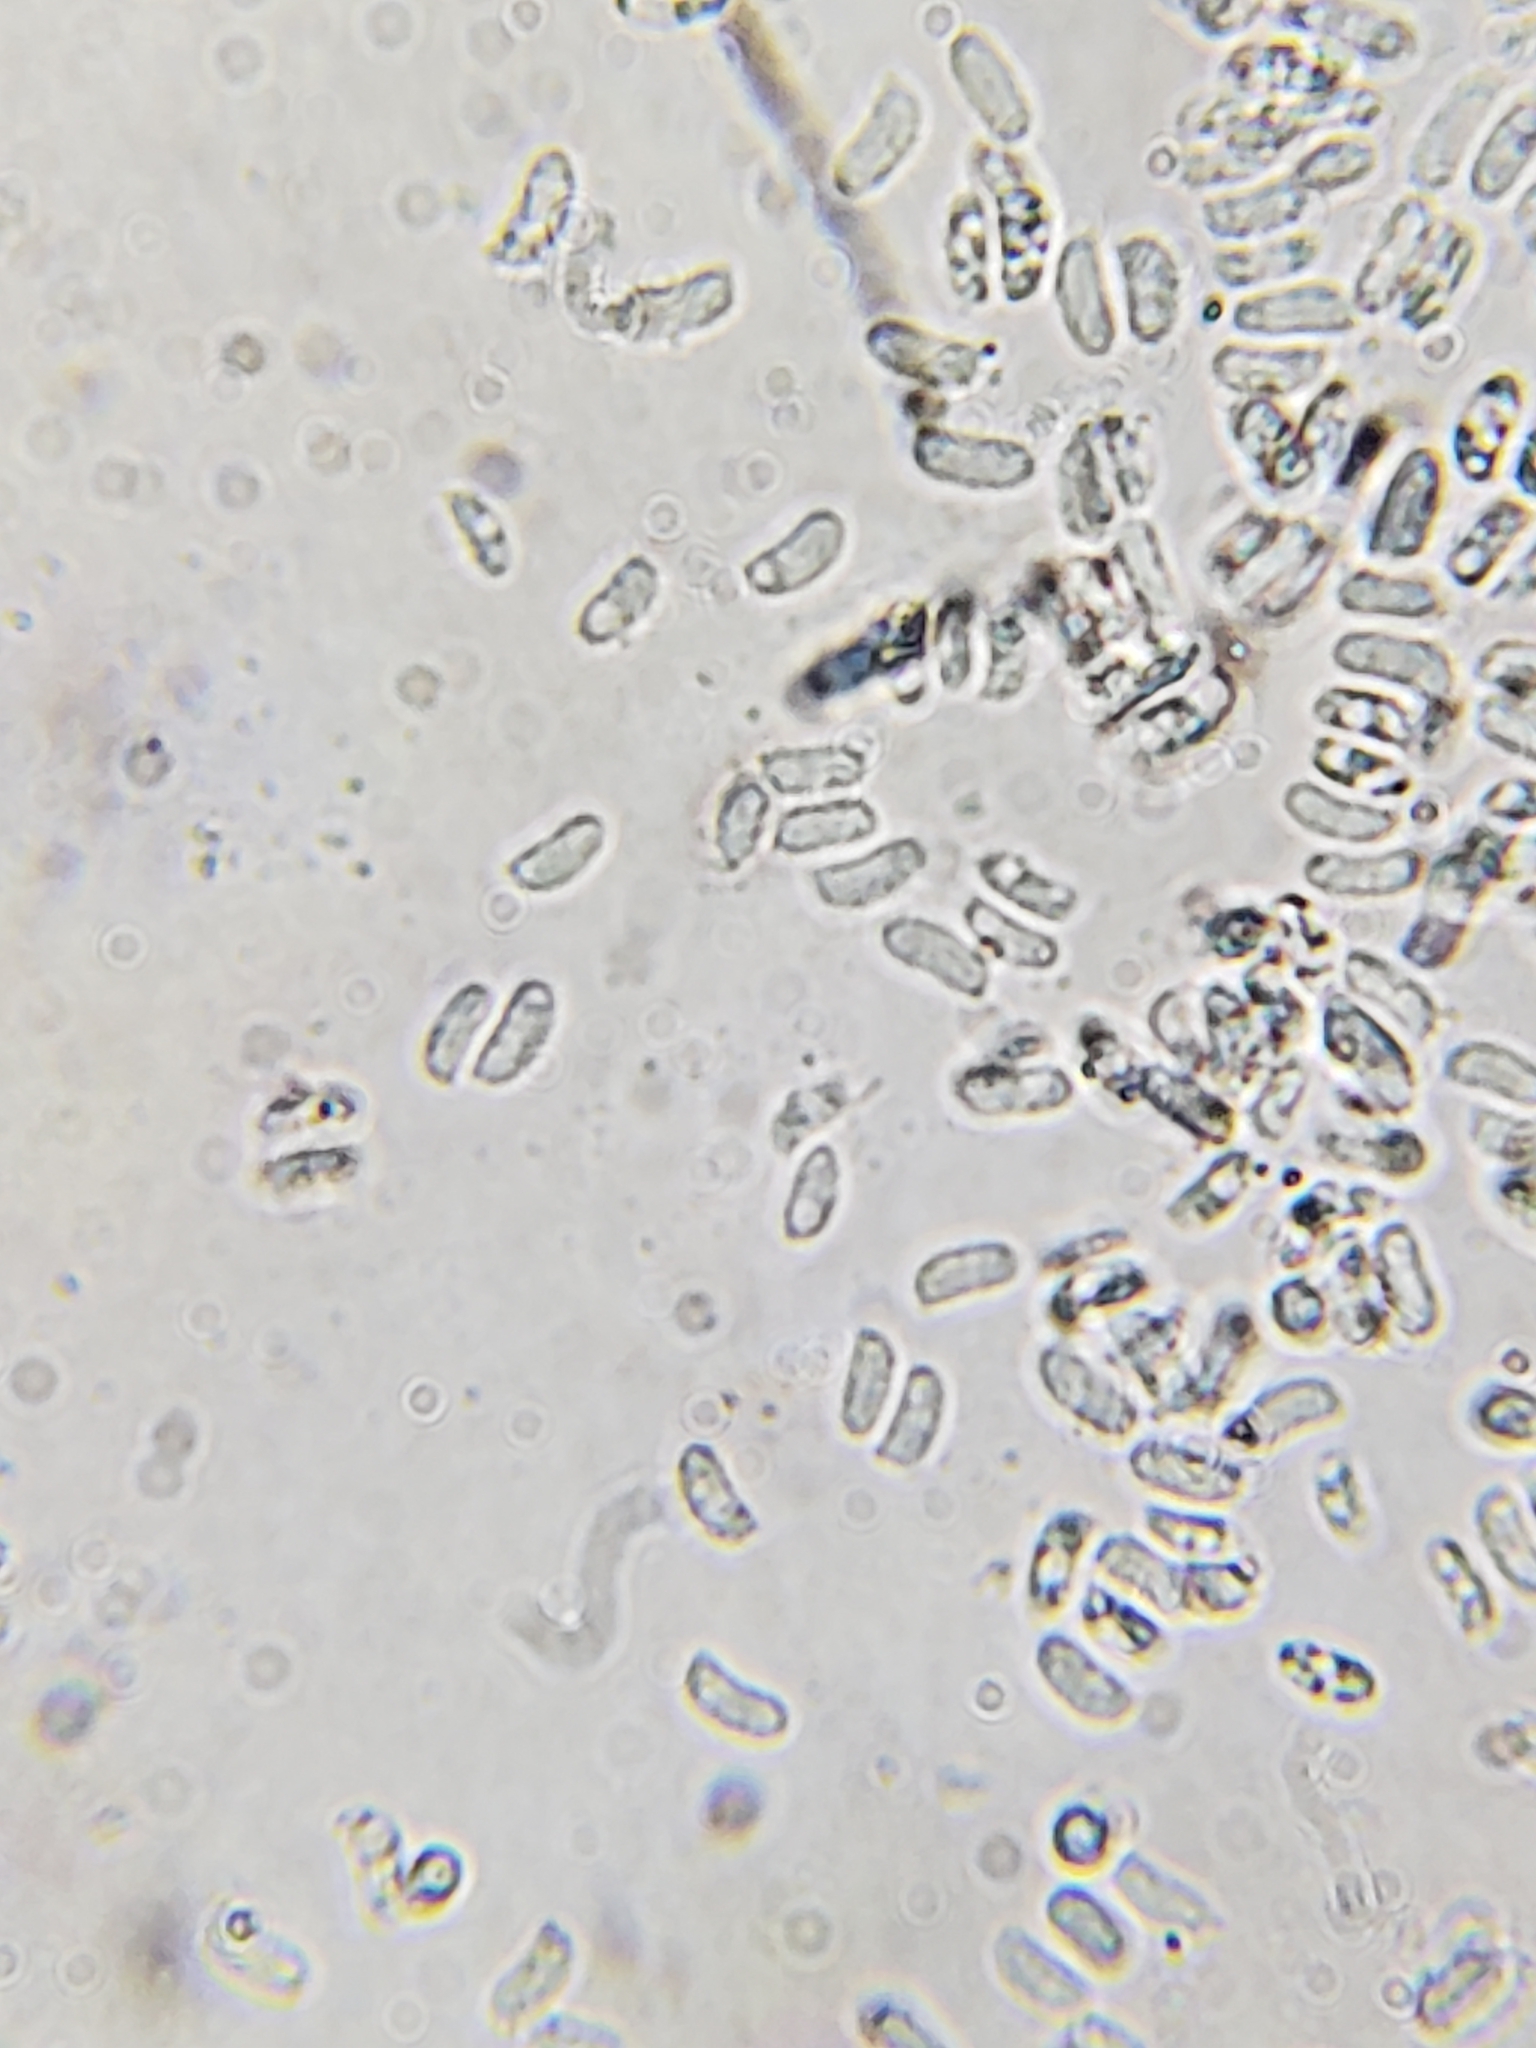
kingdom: Fungi
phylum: Basidiomycota
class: Agaricomycetes
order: Hymenochaetales
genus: Trichaptum
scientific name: Trichaptum biforme
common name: Violet-toothed polypore
